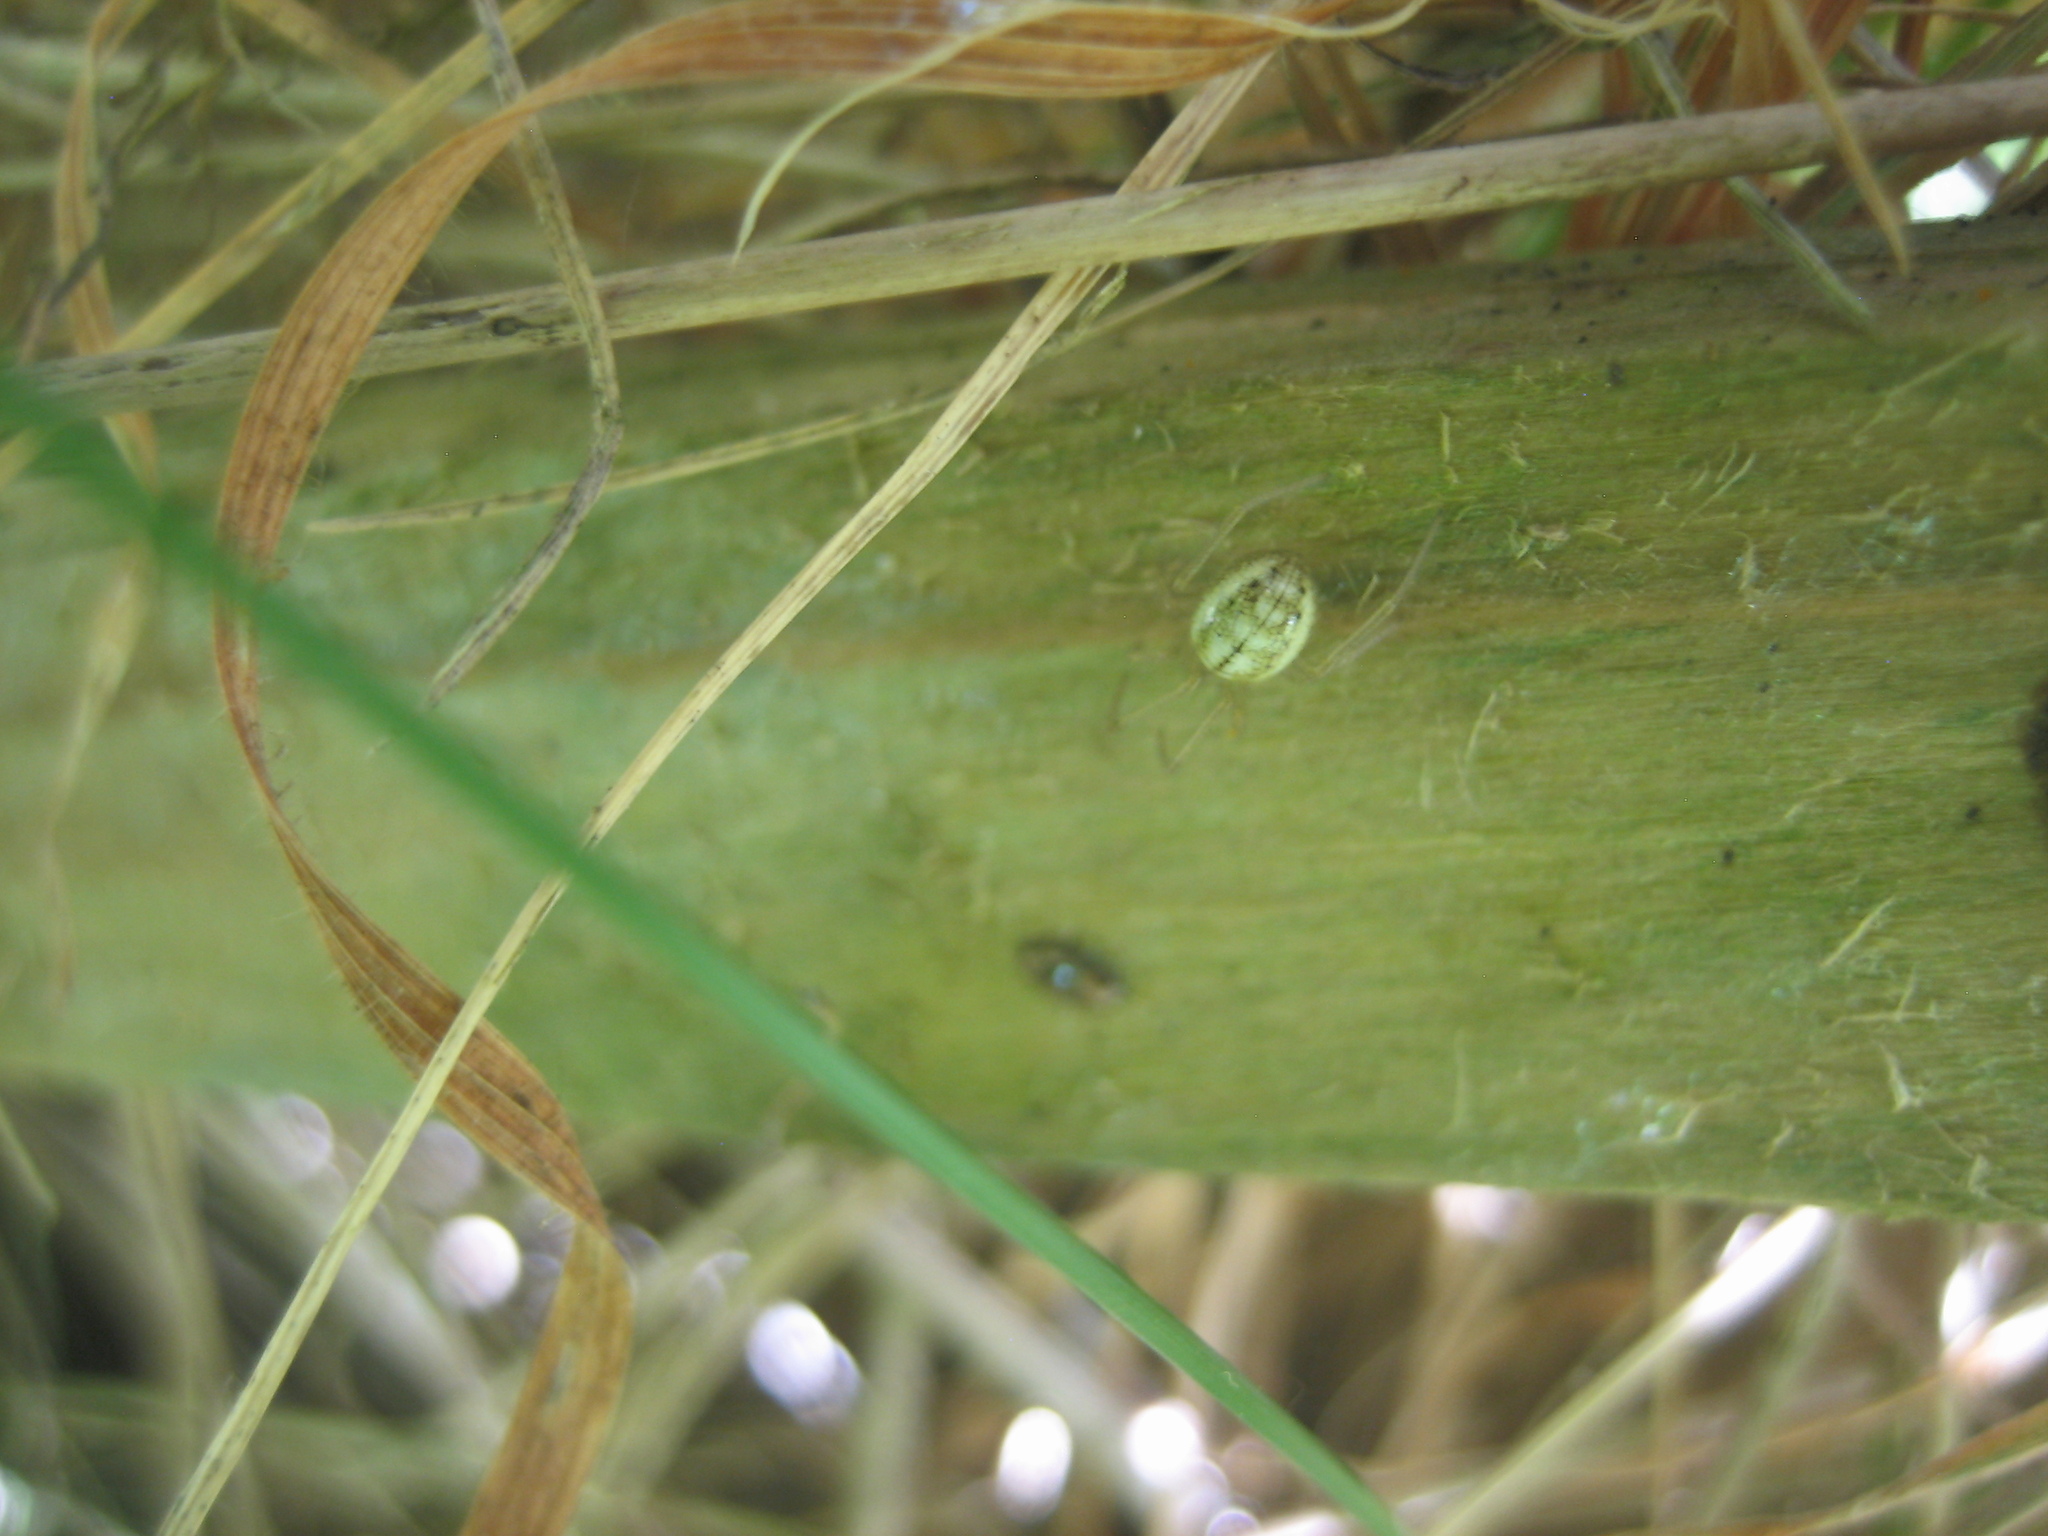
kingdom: Animalia
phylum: Arthropoda
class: Arachnida
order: Araneae
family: Theridiidae
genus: Enoplognatha
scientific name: Enoplognatha ovata
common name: Common candy-striped spider
